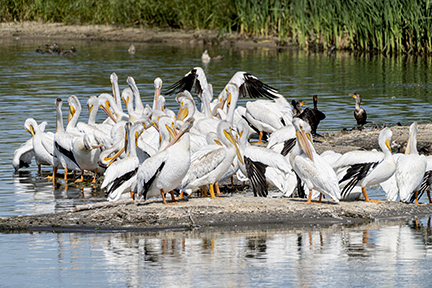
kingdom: Animalia
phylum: Chordata
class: Aves
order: Pelecaniformes
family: Pelecanidae
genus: Pelecanus
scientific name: Pelecanus erythrorhynchos
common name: American white pelican
